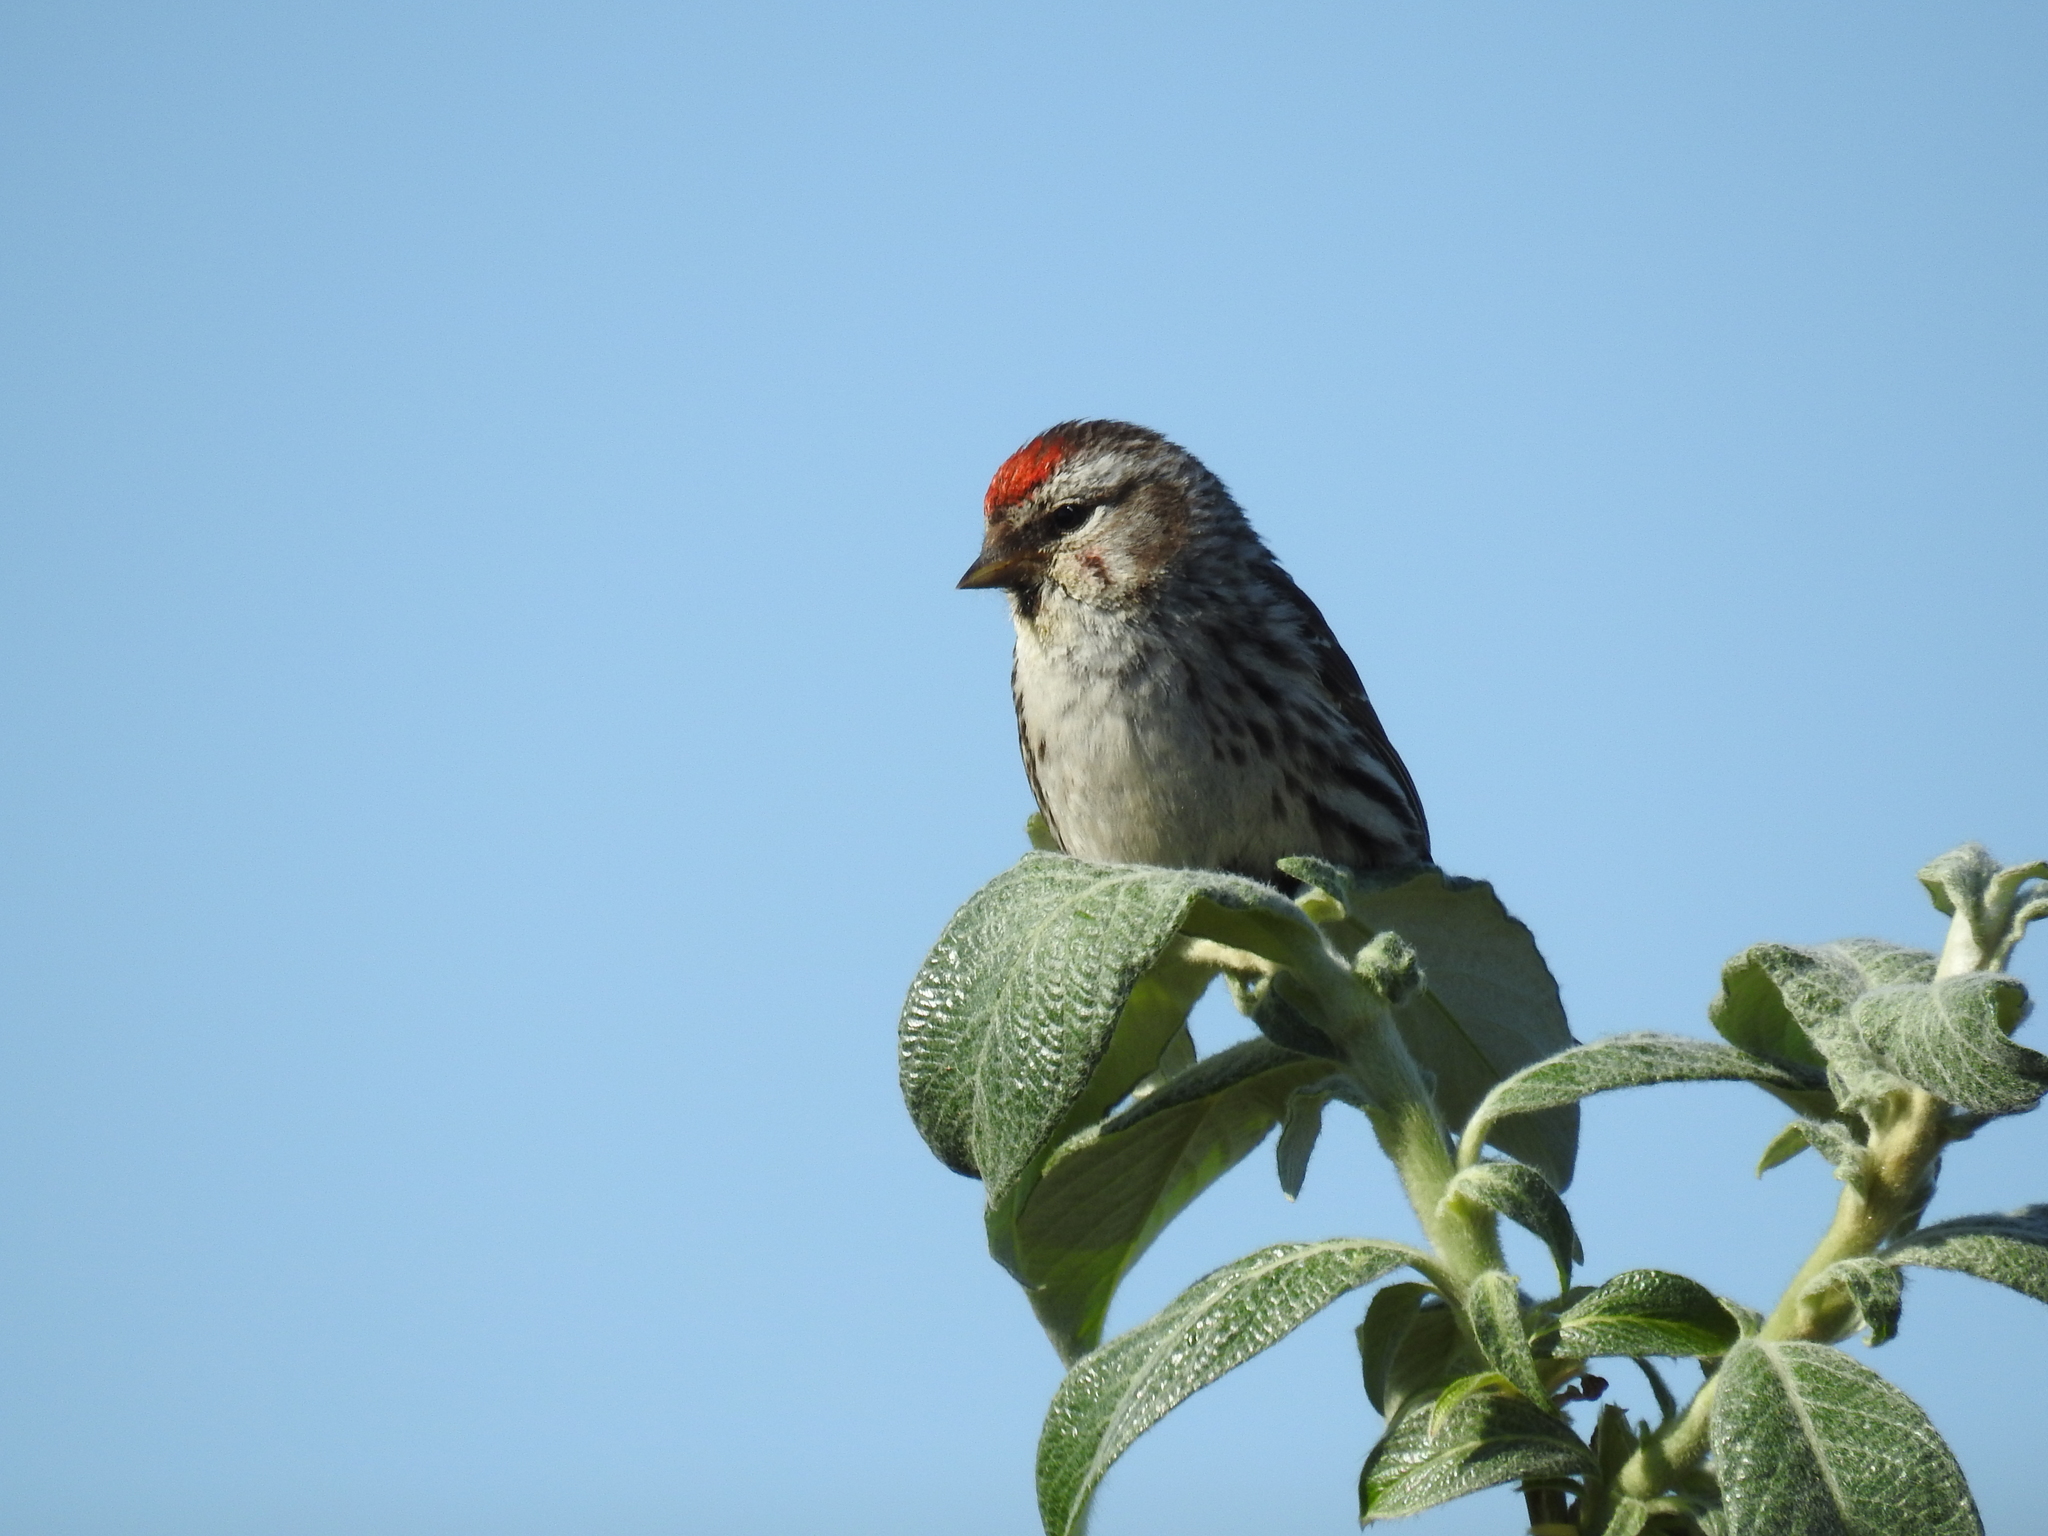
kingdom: Animalia
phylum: Chordata
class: Aves
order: Passeriformes
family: Fringillidae
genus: Acanthis
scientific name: Acanthis flammea
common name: Common redpoll
